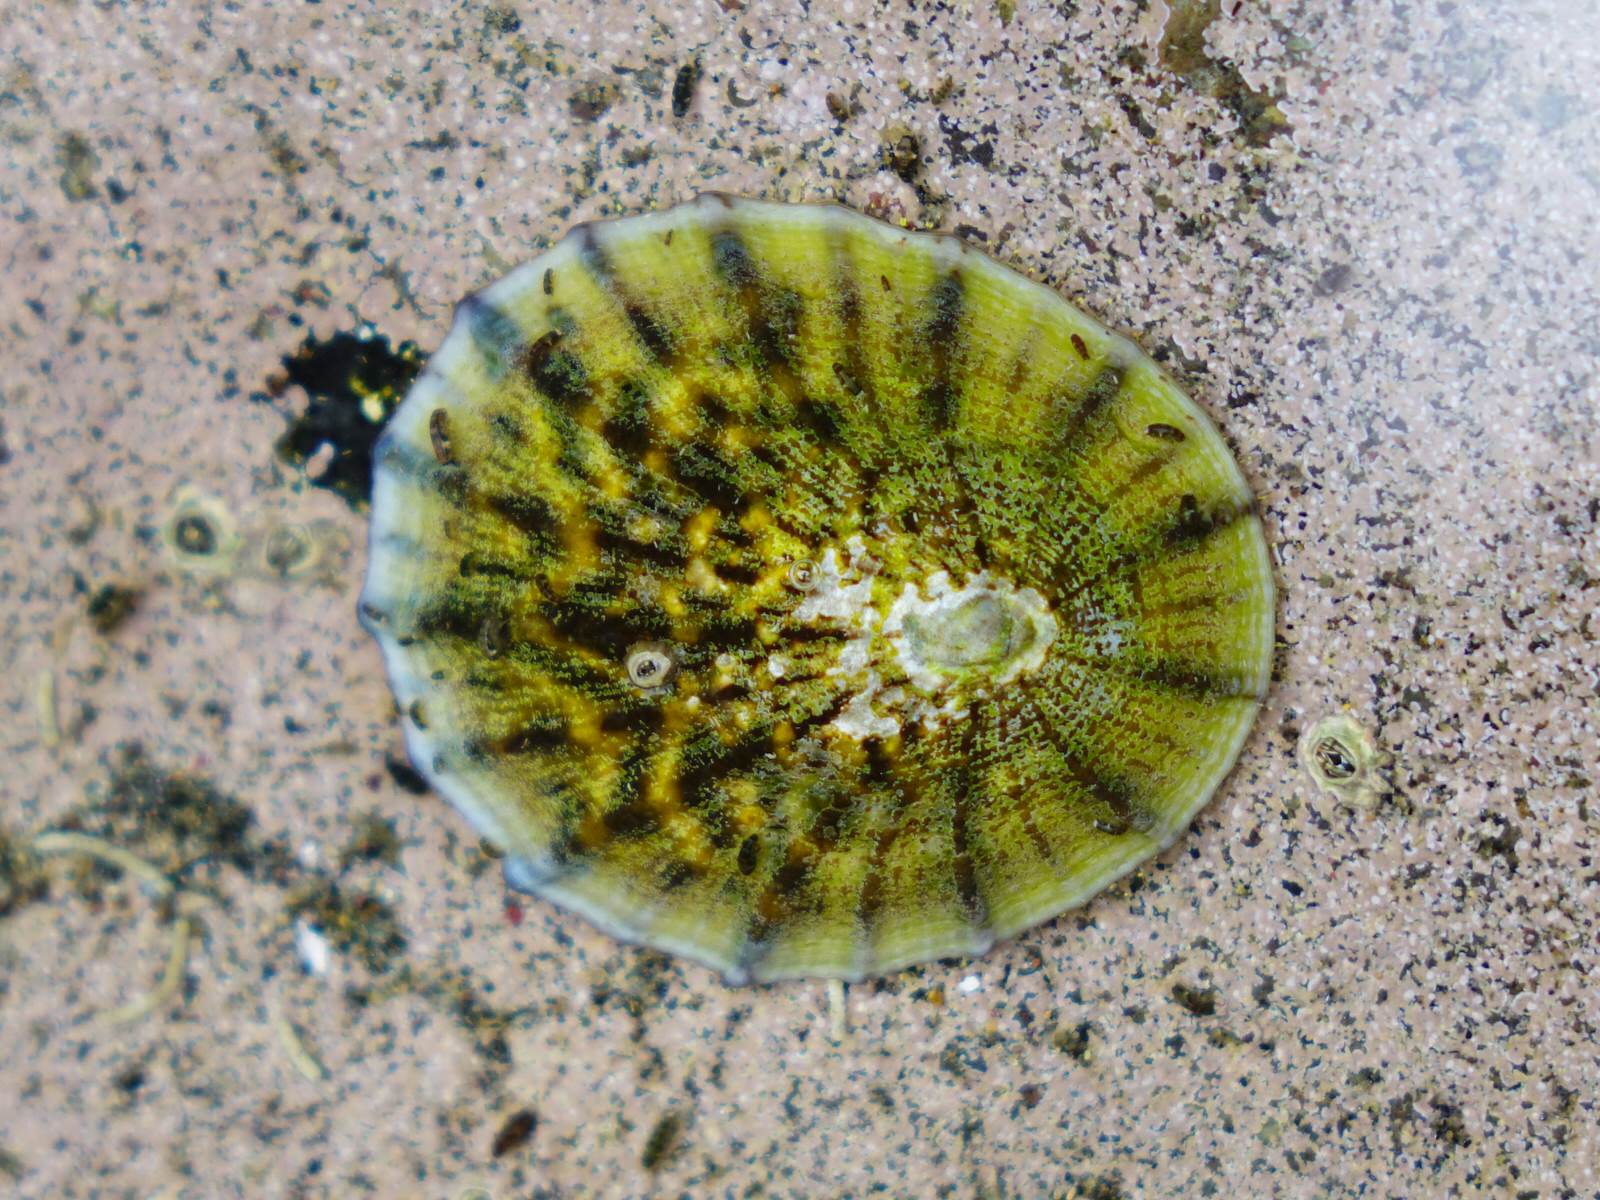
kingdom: Animalia
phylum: Mollusca
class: Gastropoda
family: Nacellidae
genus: Cellana
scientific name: Cellana radians
